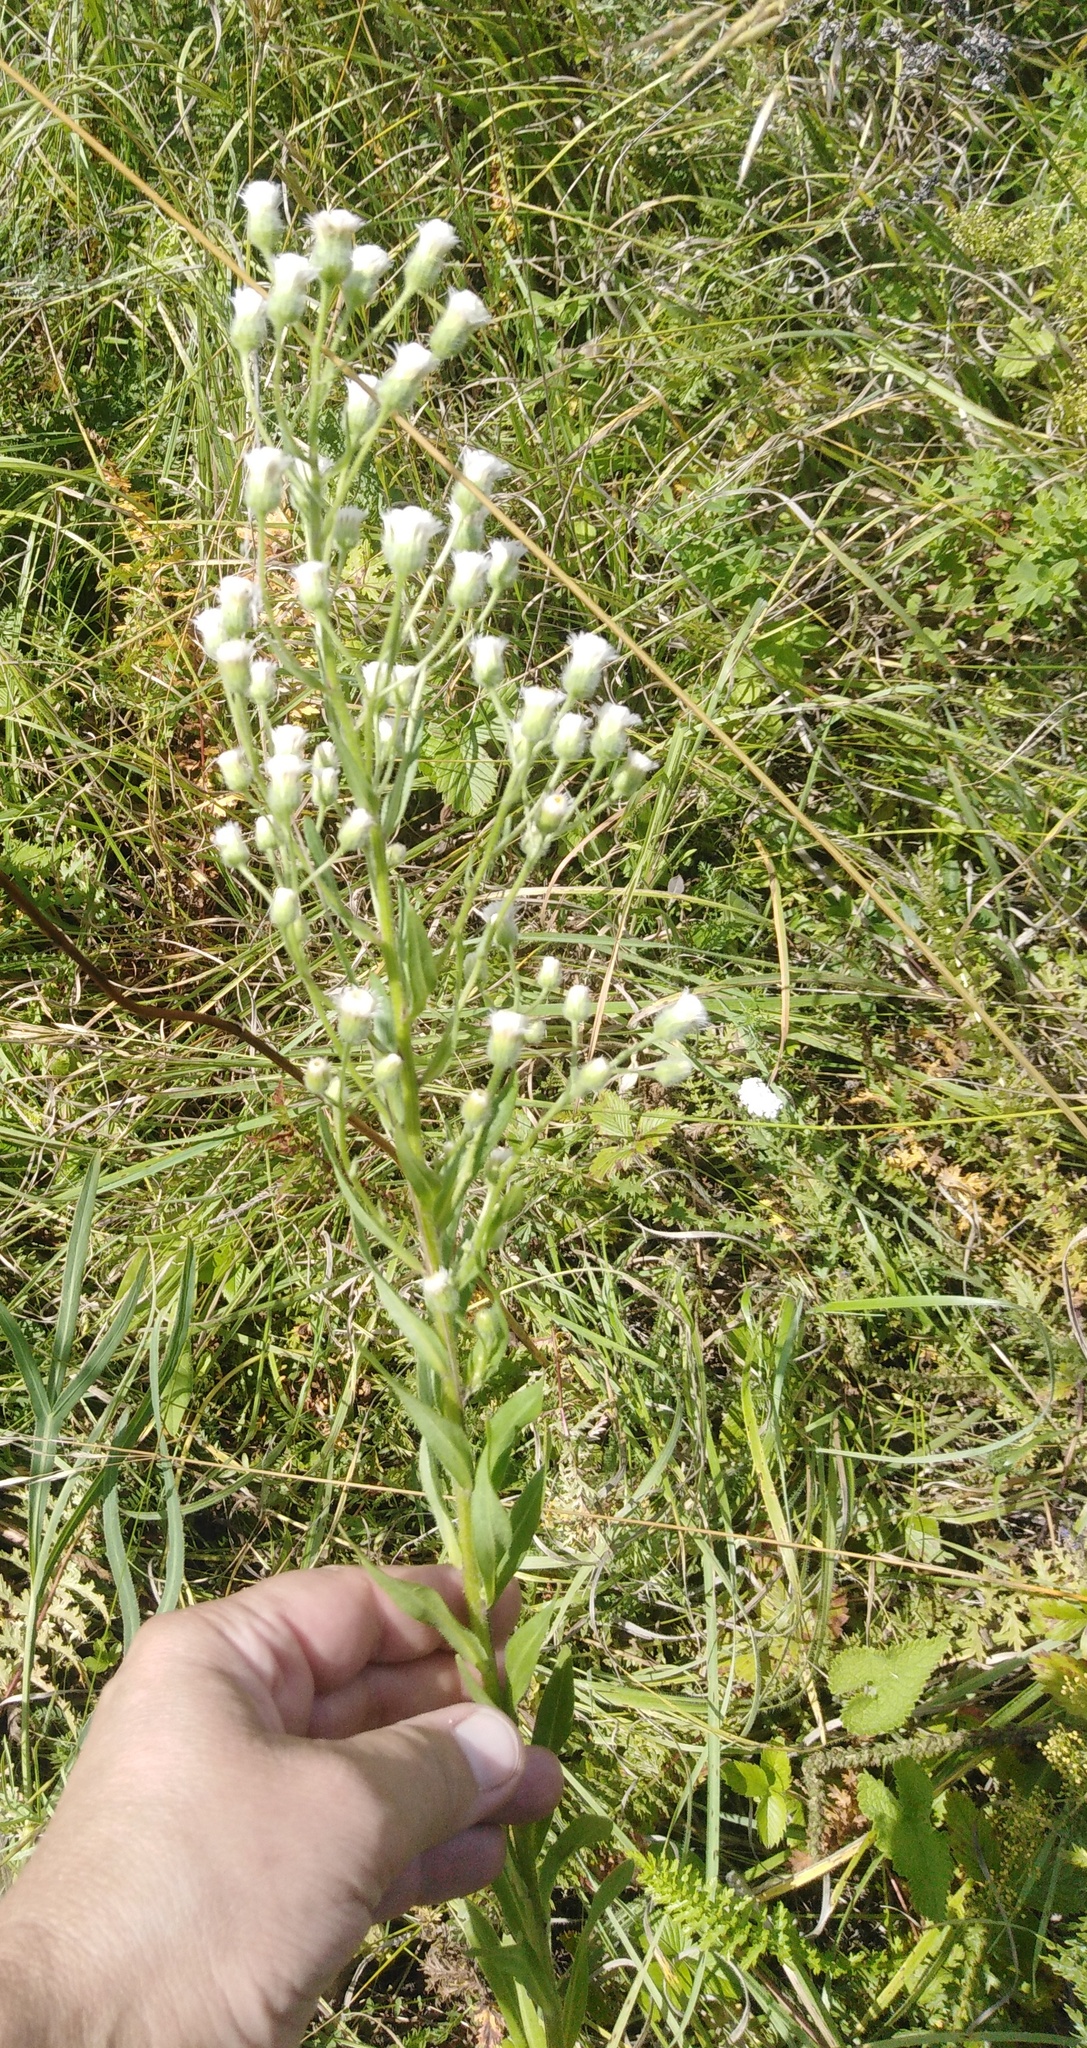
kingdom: Plantae
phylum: Tracheophyta
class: Magnoliopsida
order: Asterales
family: Asteraceae
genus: Erigeron
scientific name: Erigeron acris
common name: Blue fleabane
